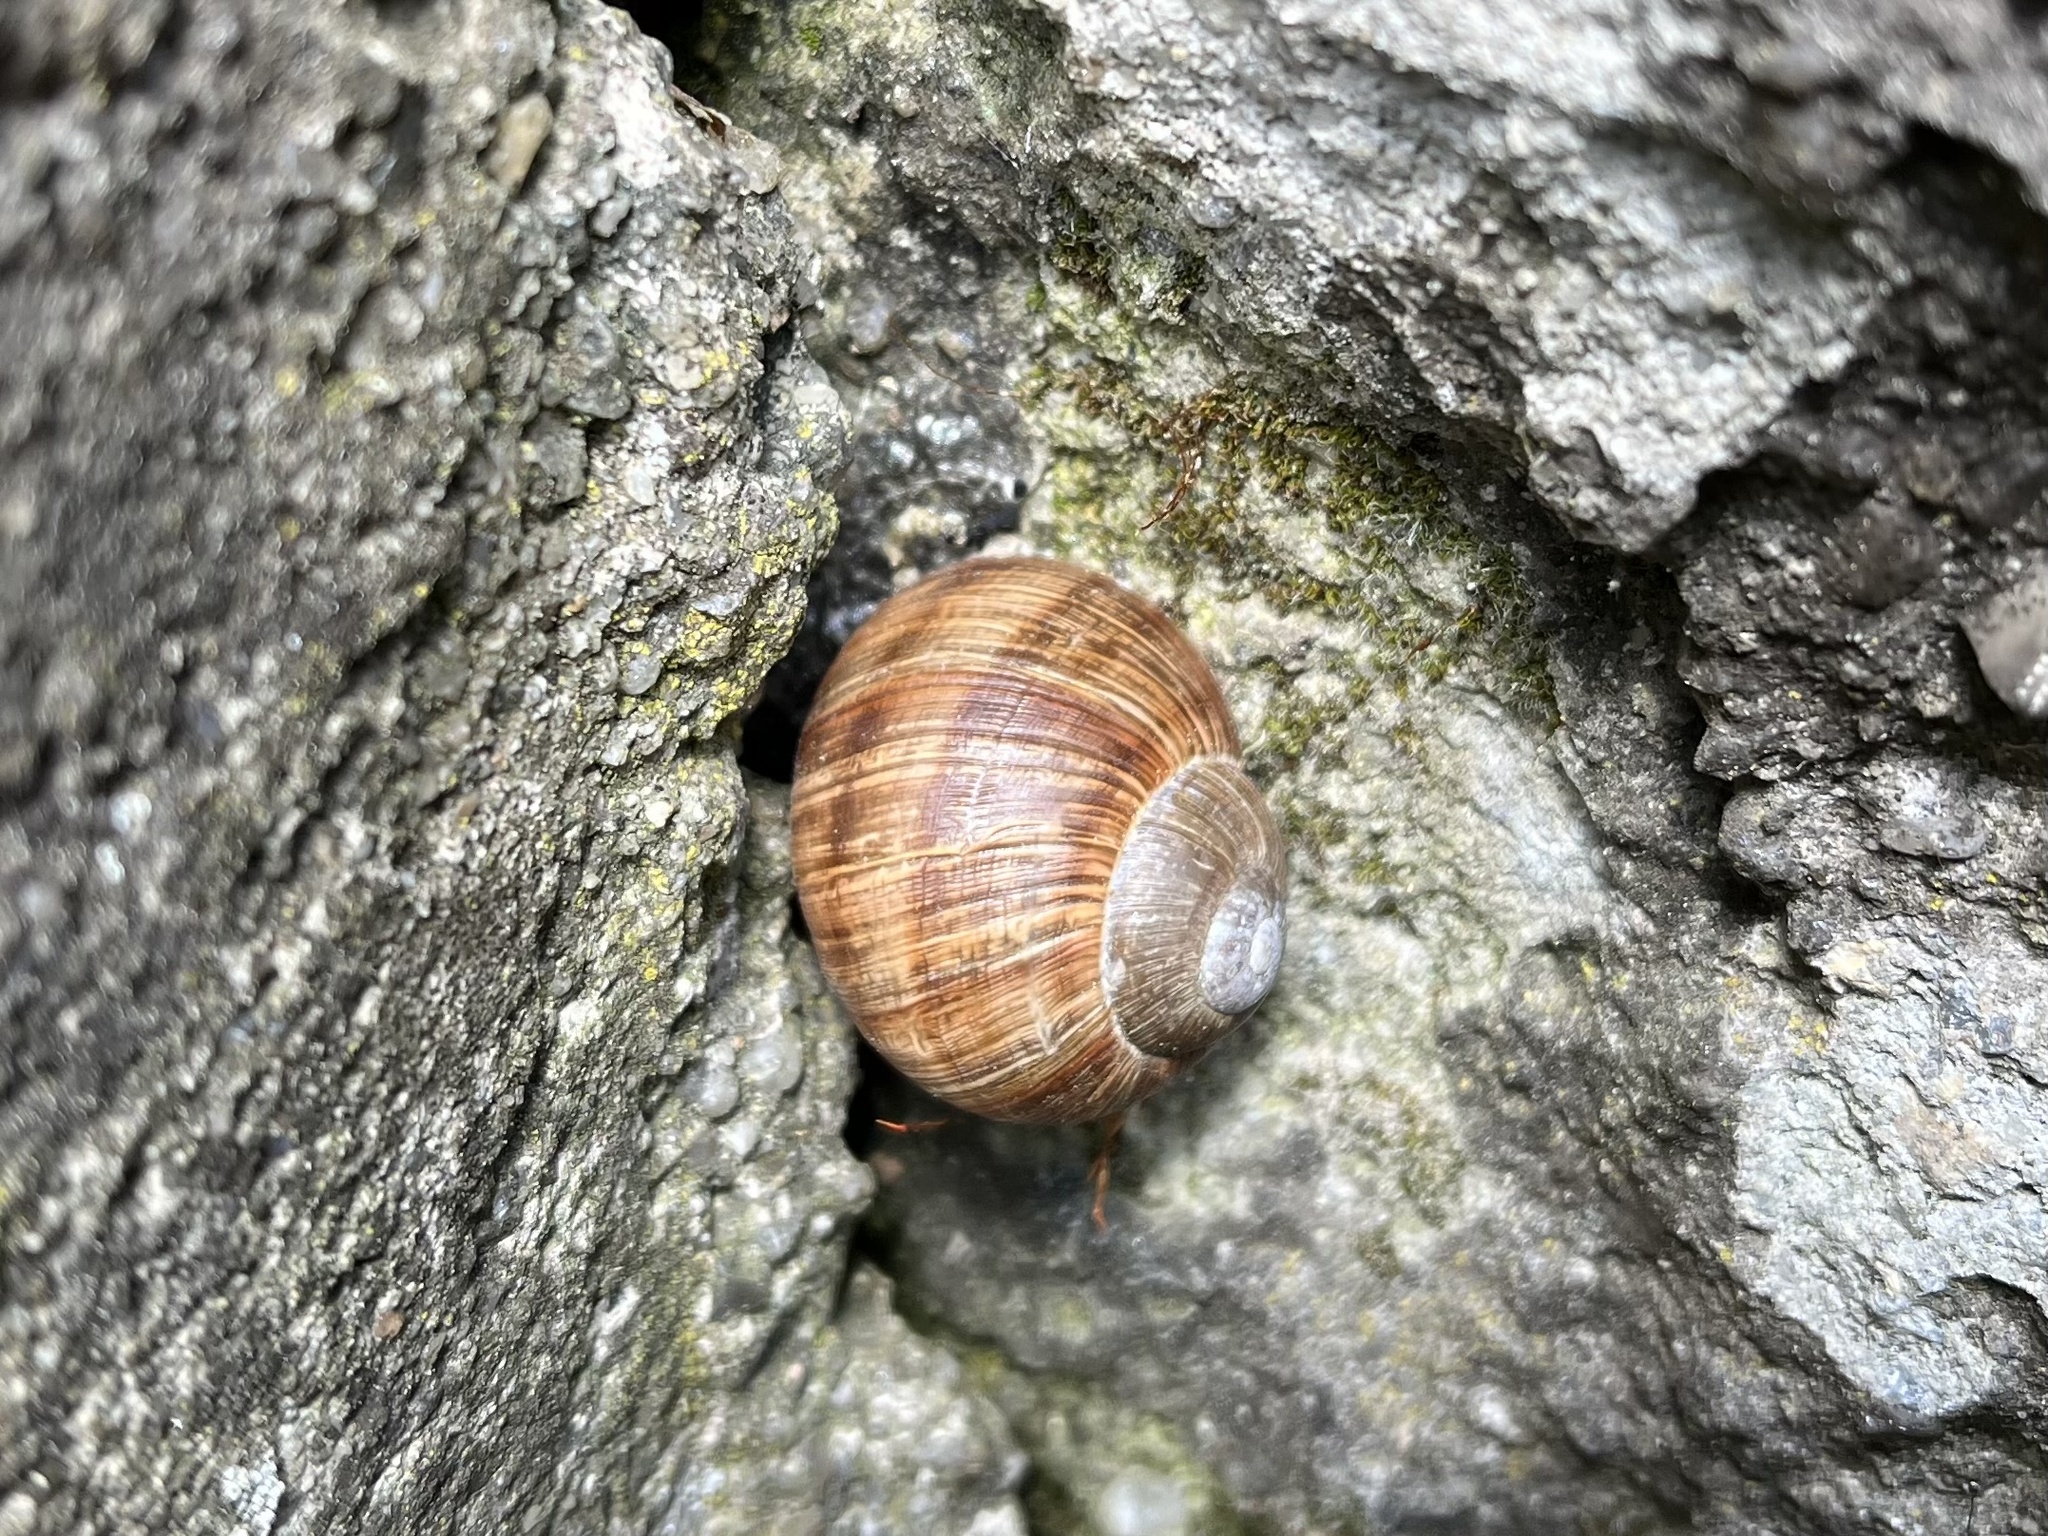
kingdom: Animalia
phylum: Mollusca
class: Gastropoda
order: Stylommatophora
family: Helicidae
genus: Helix
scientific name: Helix pomatia
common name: Roman snail
